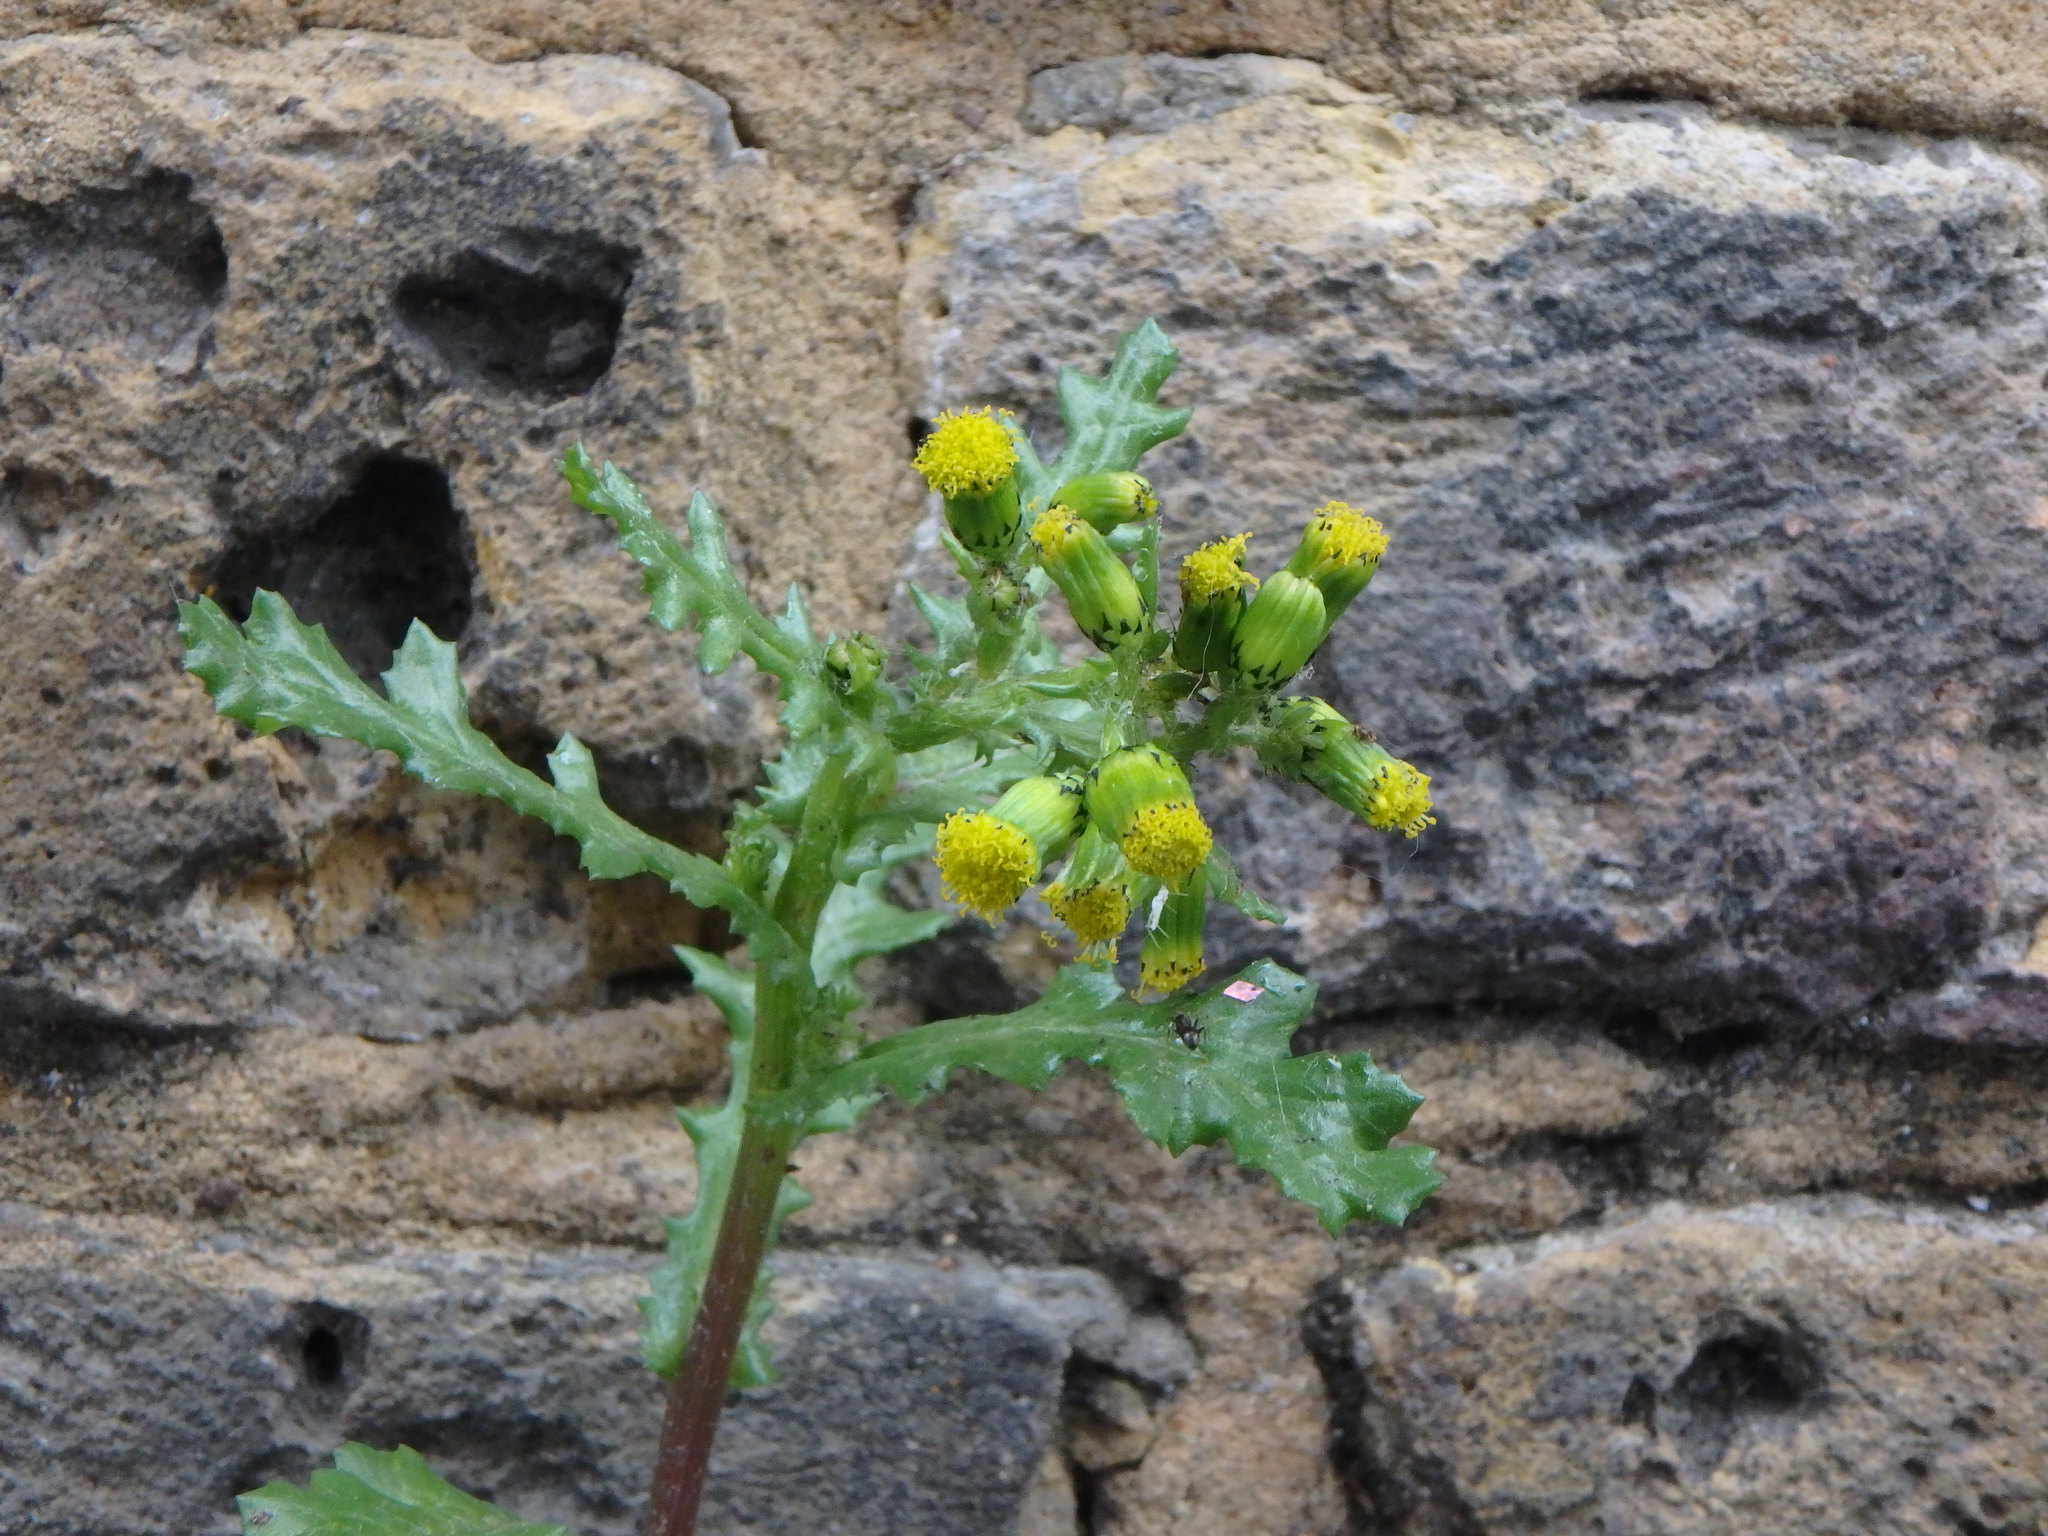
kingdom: Plantae
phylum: Tracheophyta
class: Magnoliopsida
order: Asterales
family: Asteraceae
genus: Senecio
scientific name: Senecio vulgaris
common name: Old-man-in-the-spring
